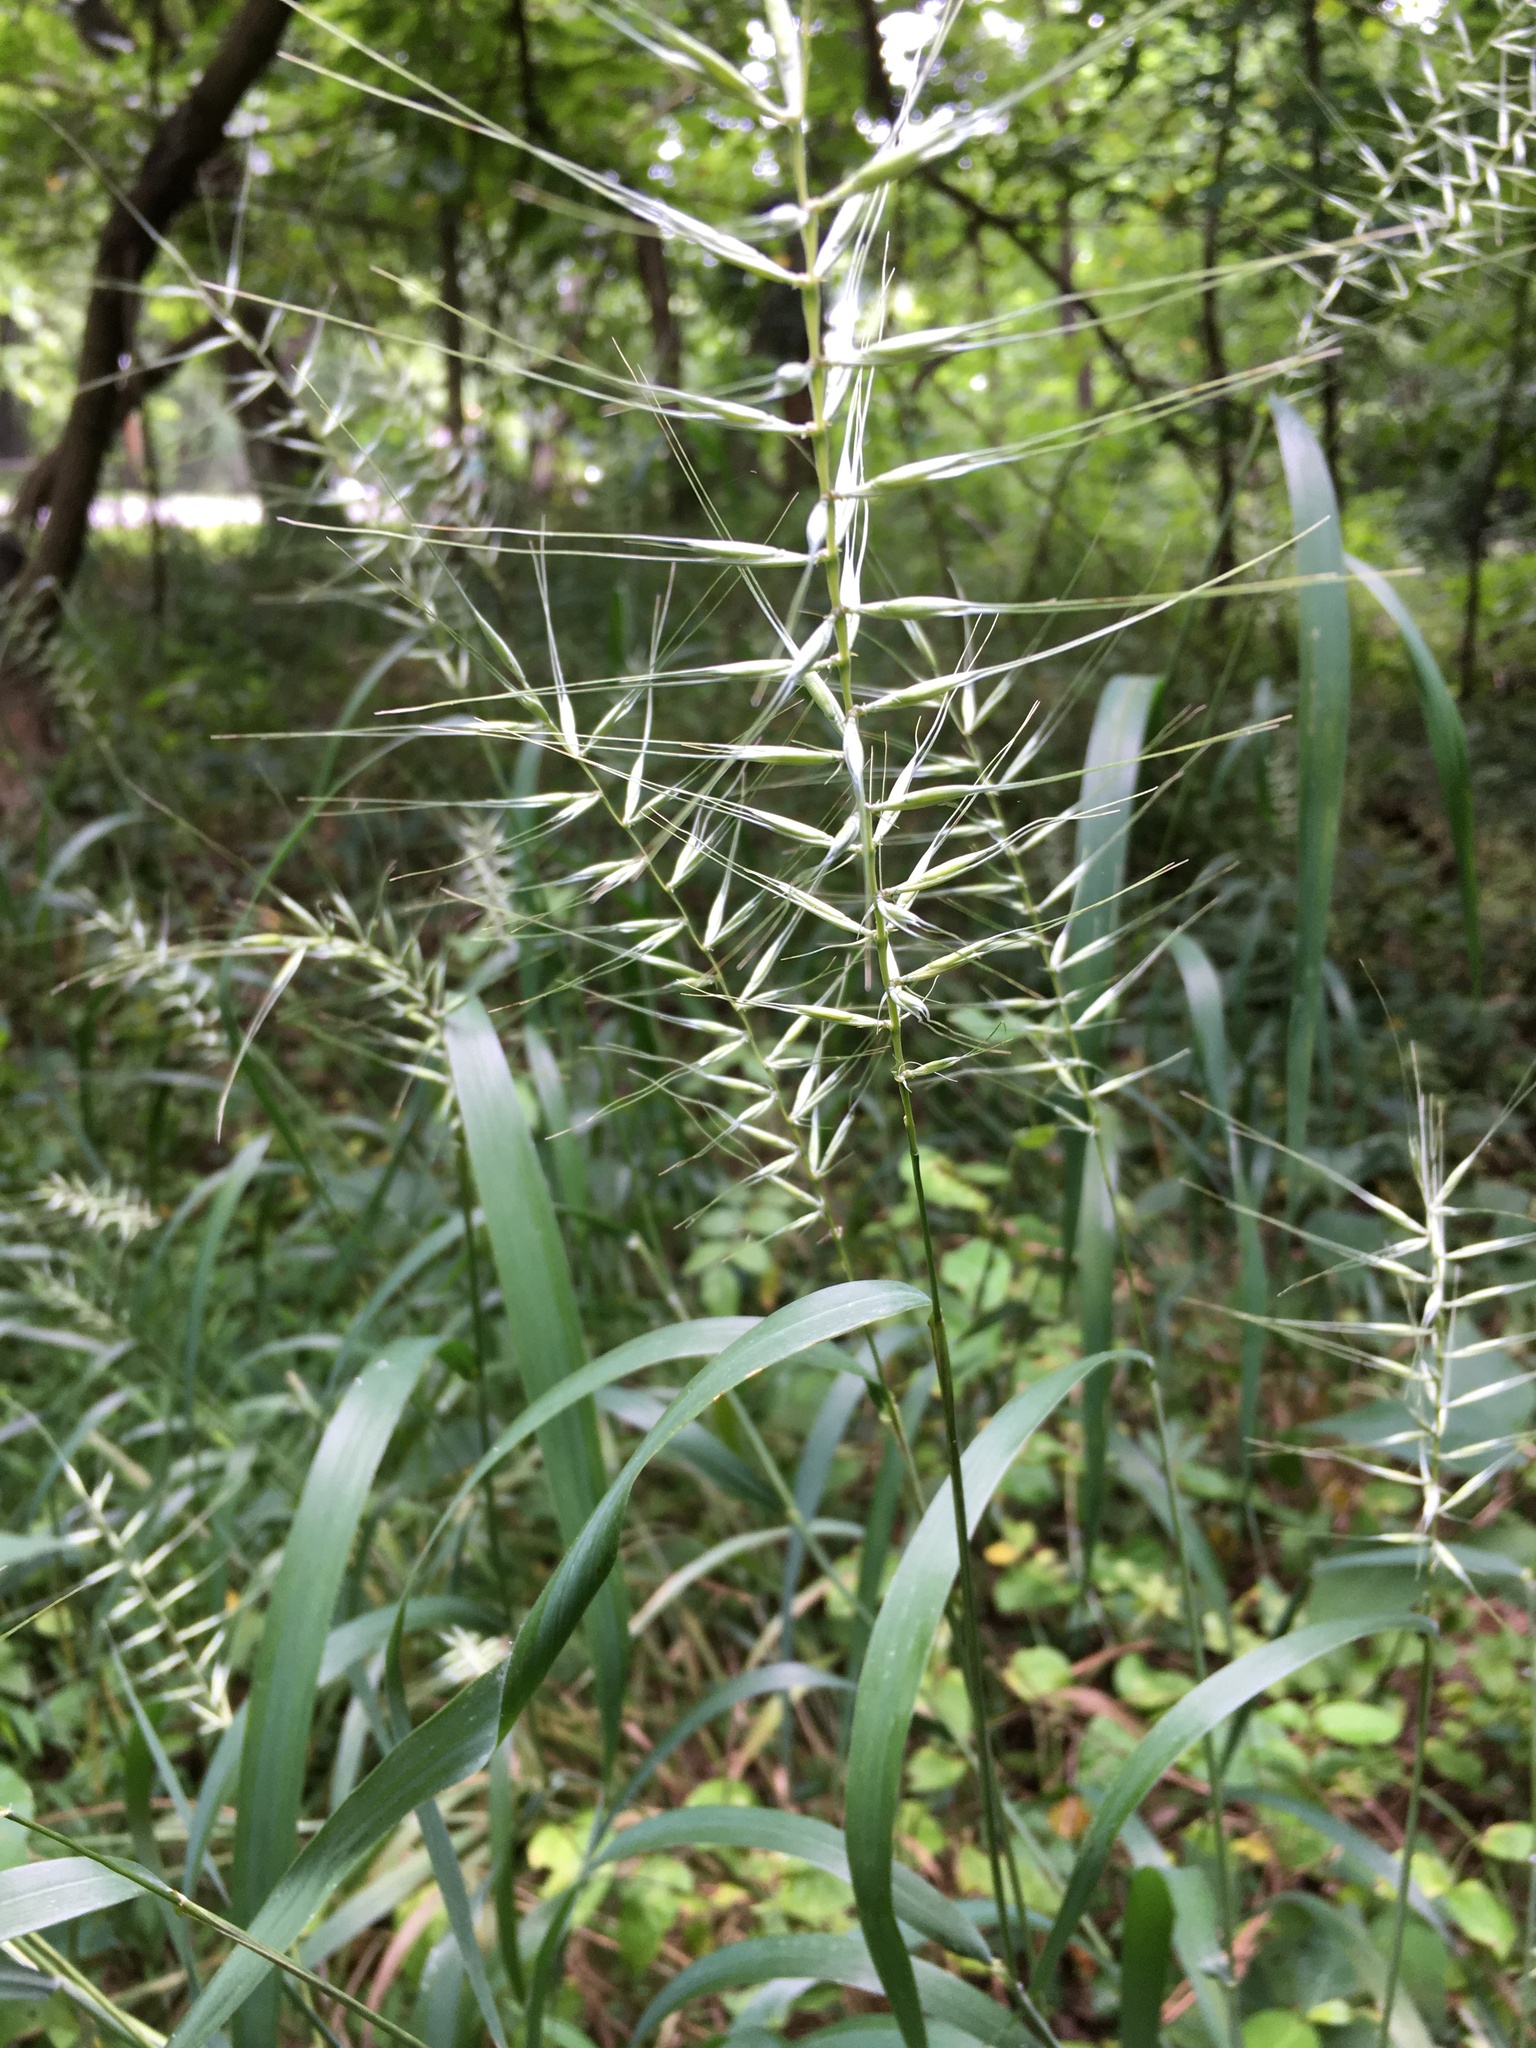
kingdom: Plantae
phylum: Tracheophyta
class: Liliopsida
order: Poales
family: Poaceae
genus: Elymus
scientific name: Elymus hystrix
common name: Bottlebrush grass
